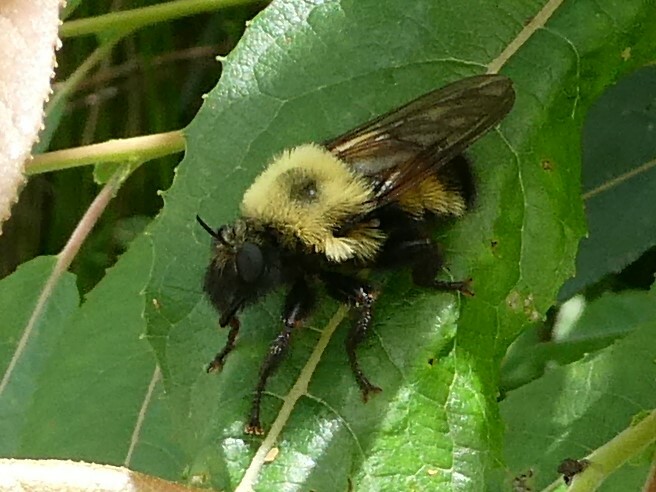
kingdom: Animalia
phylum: Arthropoda
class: Insecta
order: Diptera
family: Asilidae
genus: Laphria
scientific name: Laphria thoracica
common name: Bumble bee mimic robber fly
